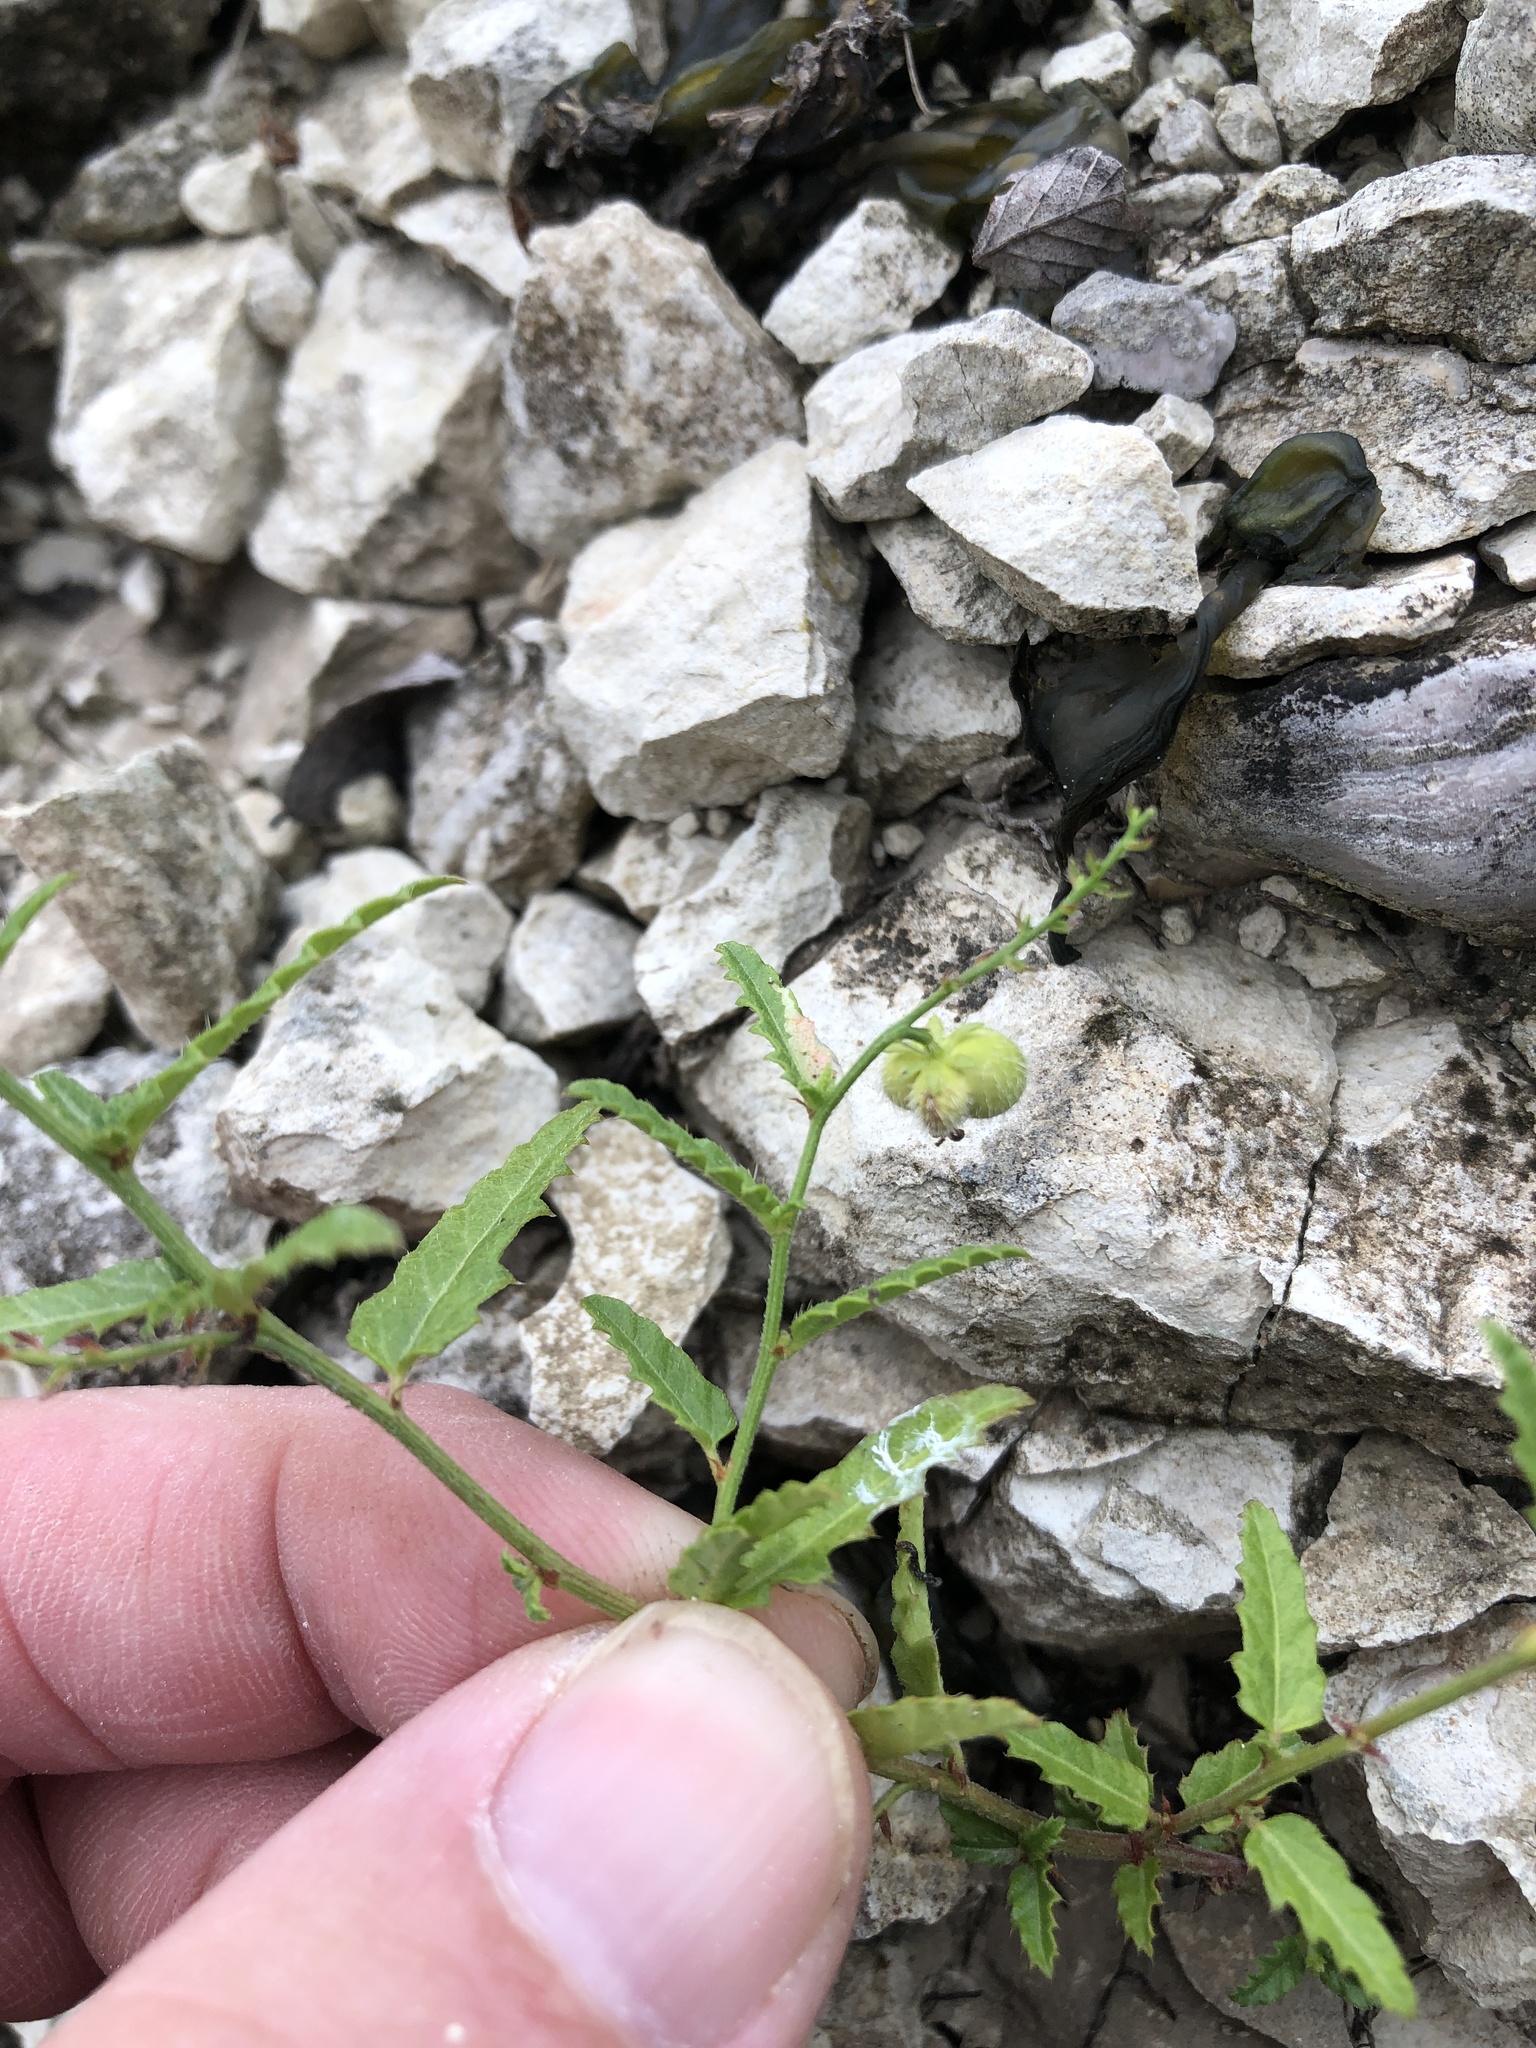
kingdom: Plantae
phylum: Tracheophyta
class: Magnoliopsida
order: Malpighiales
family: Euphorbiaceae
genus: Tragia
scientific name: Tragia ramosa
